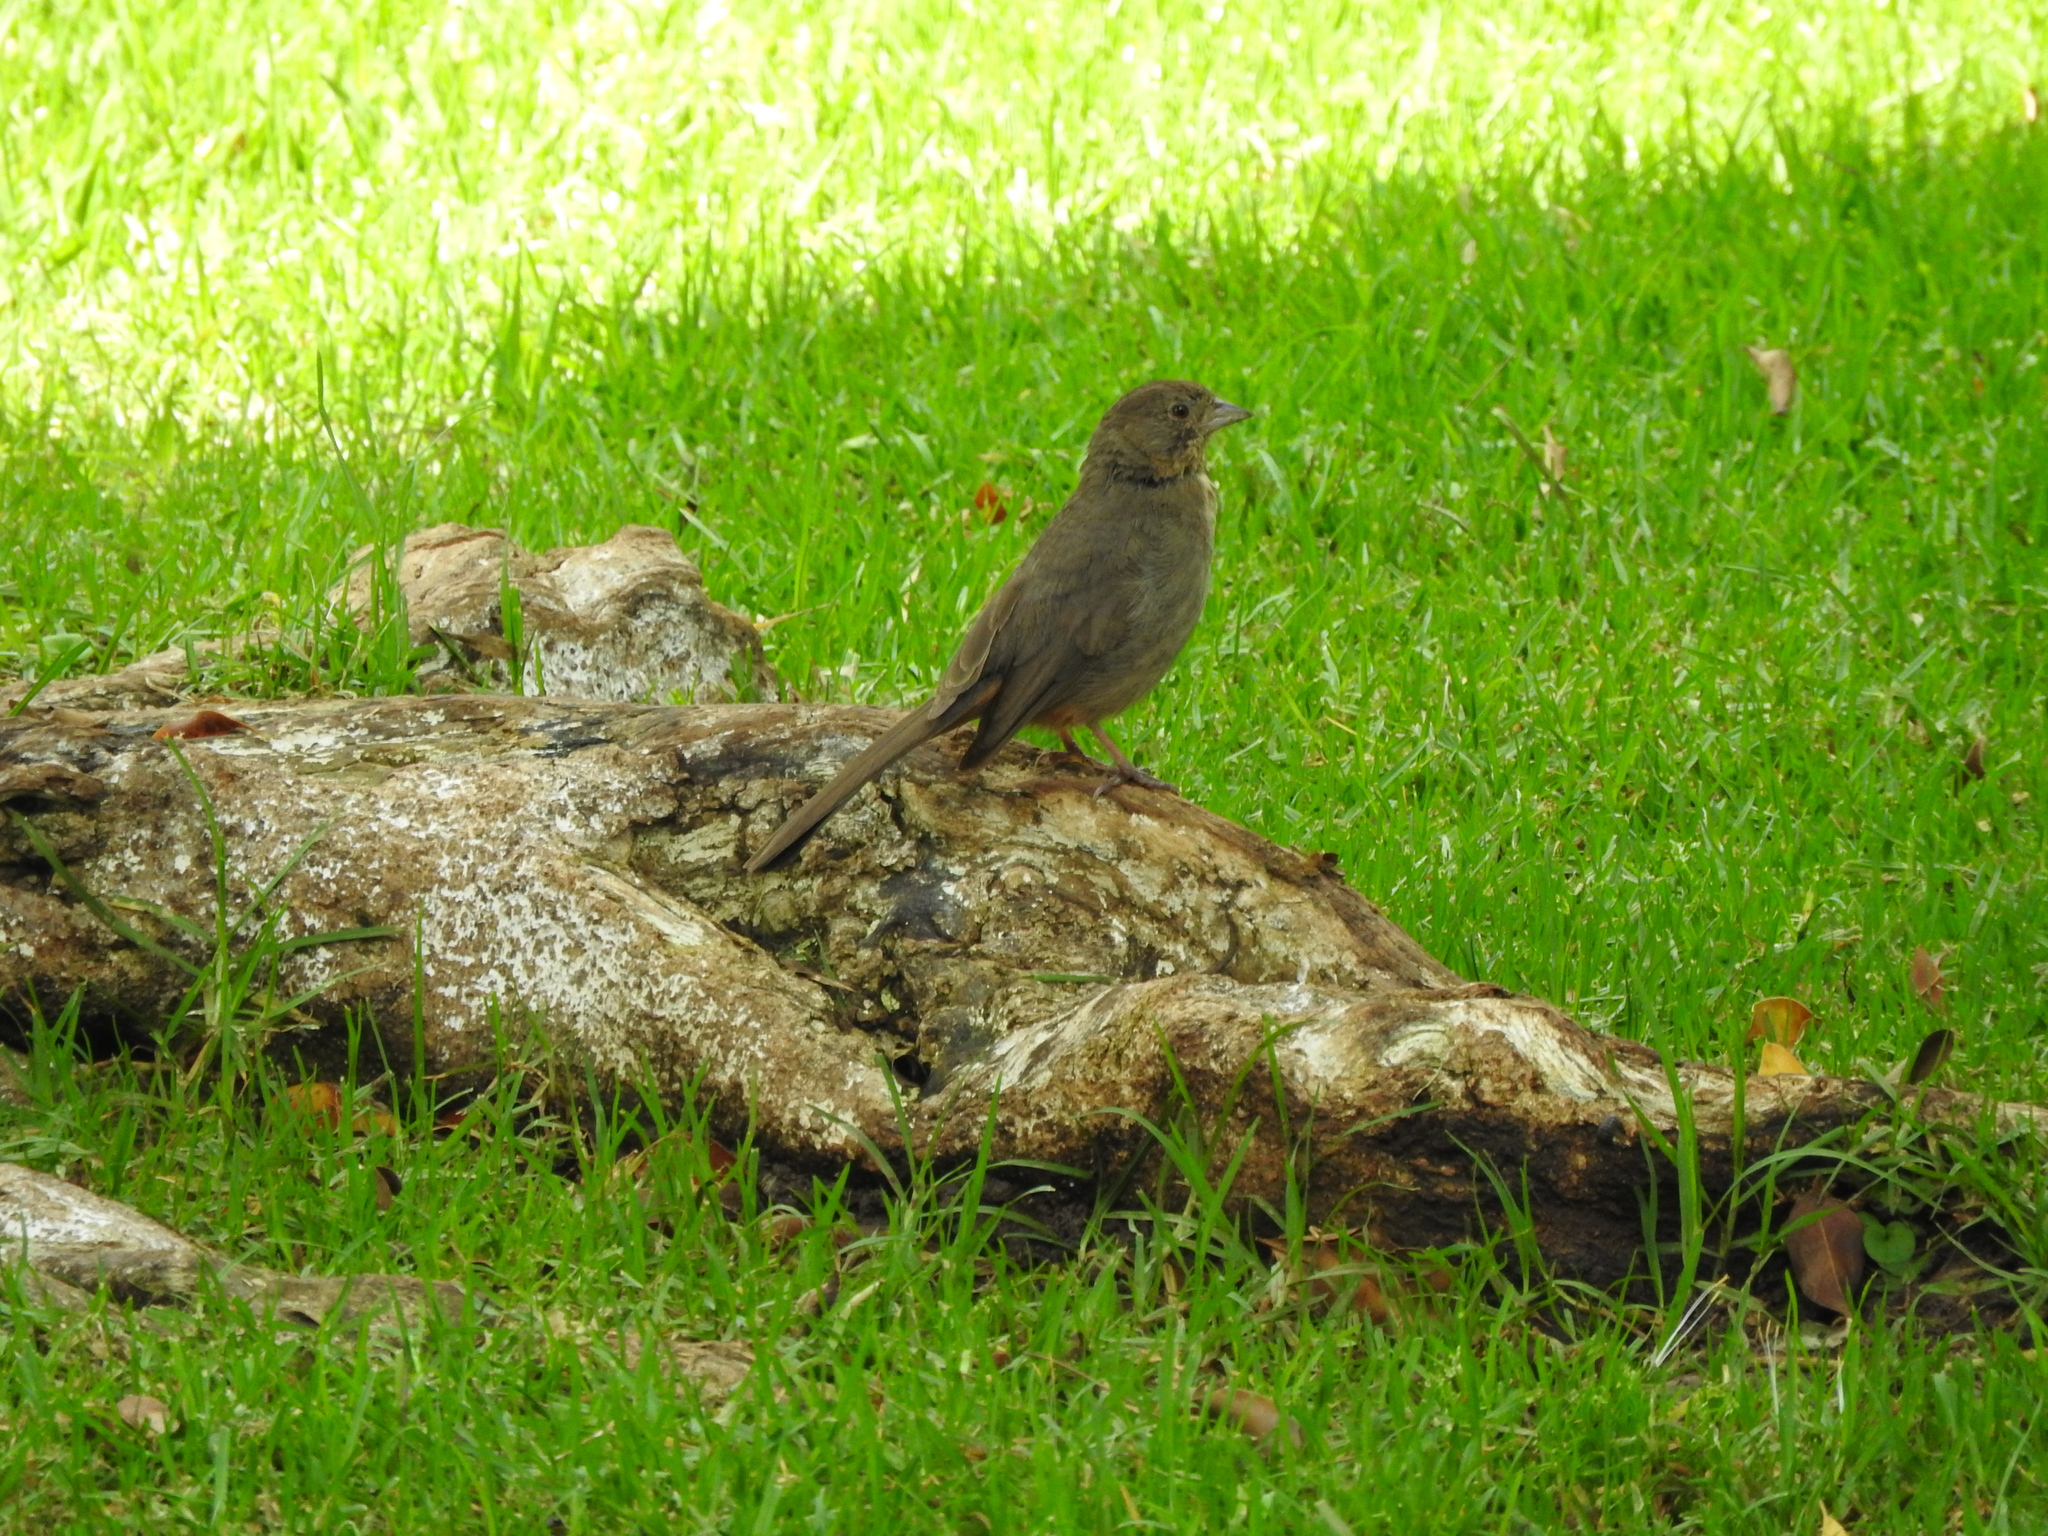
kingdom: Animalia
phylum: Chordata
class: Aves
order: Passeriformes
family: Passerellidae
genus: Melozone
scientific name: Melozone fusca
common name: Canyon towhee
